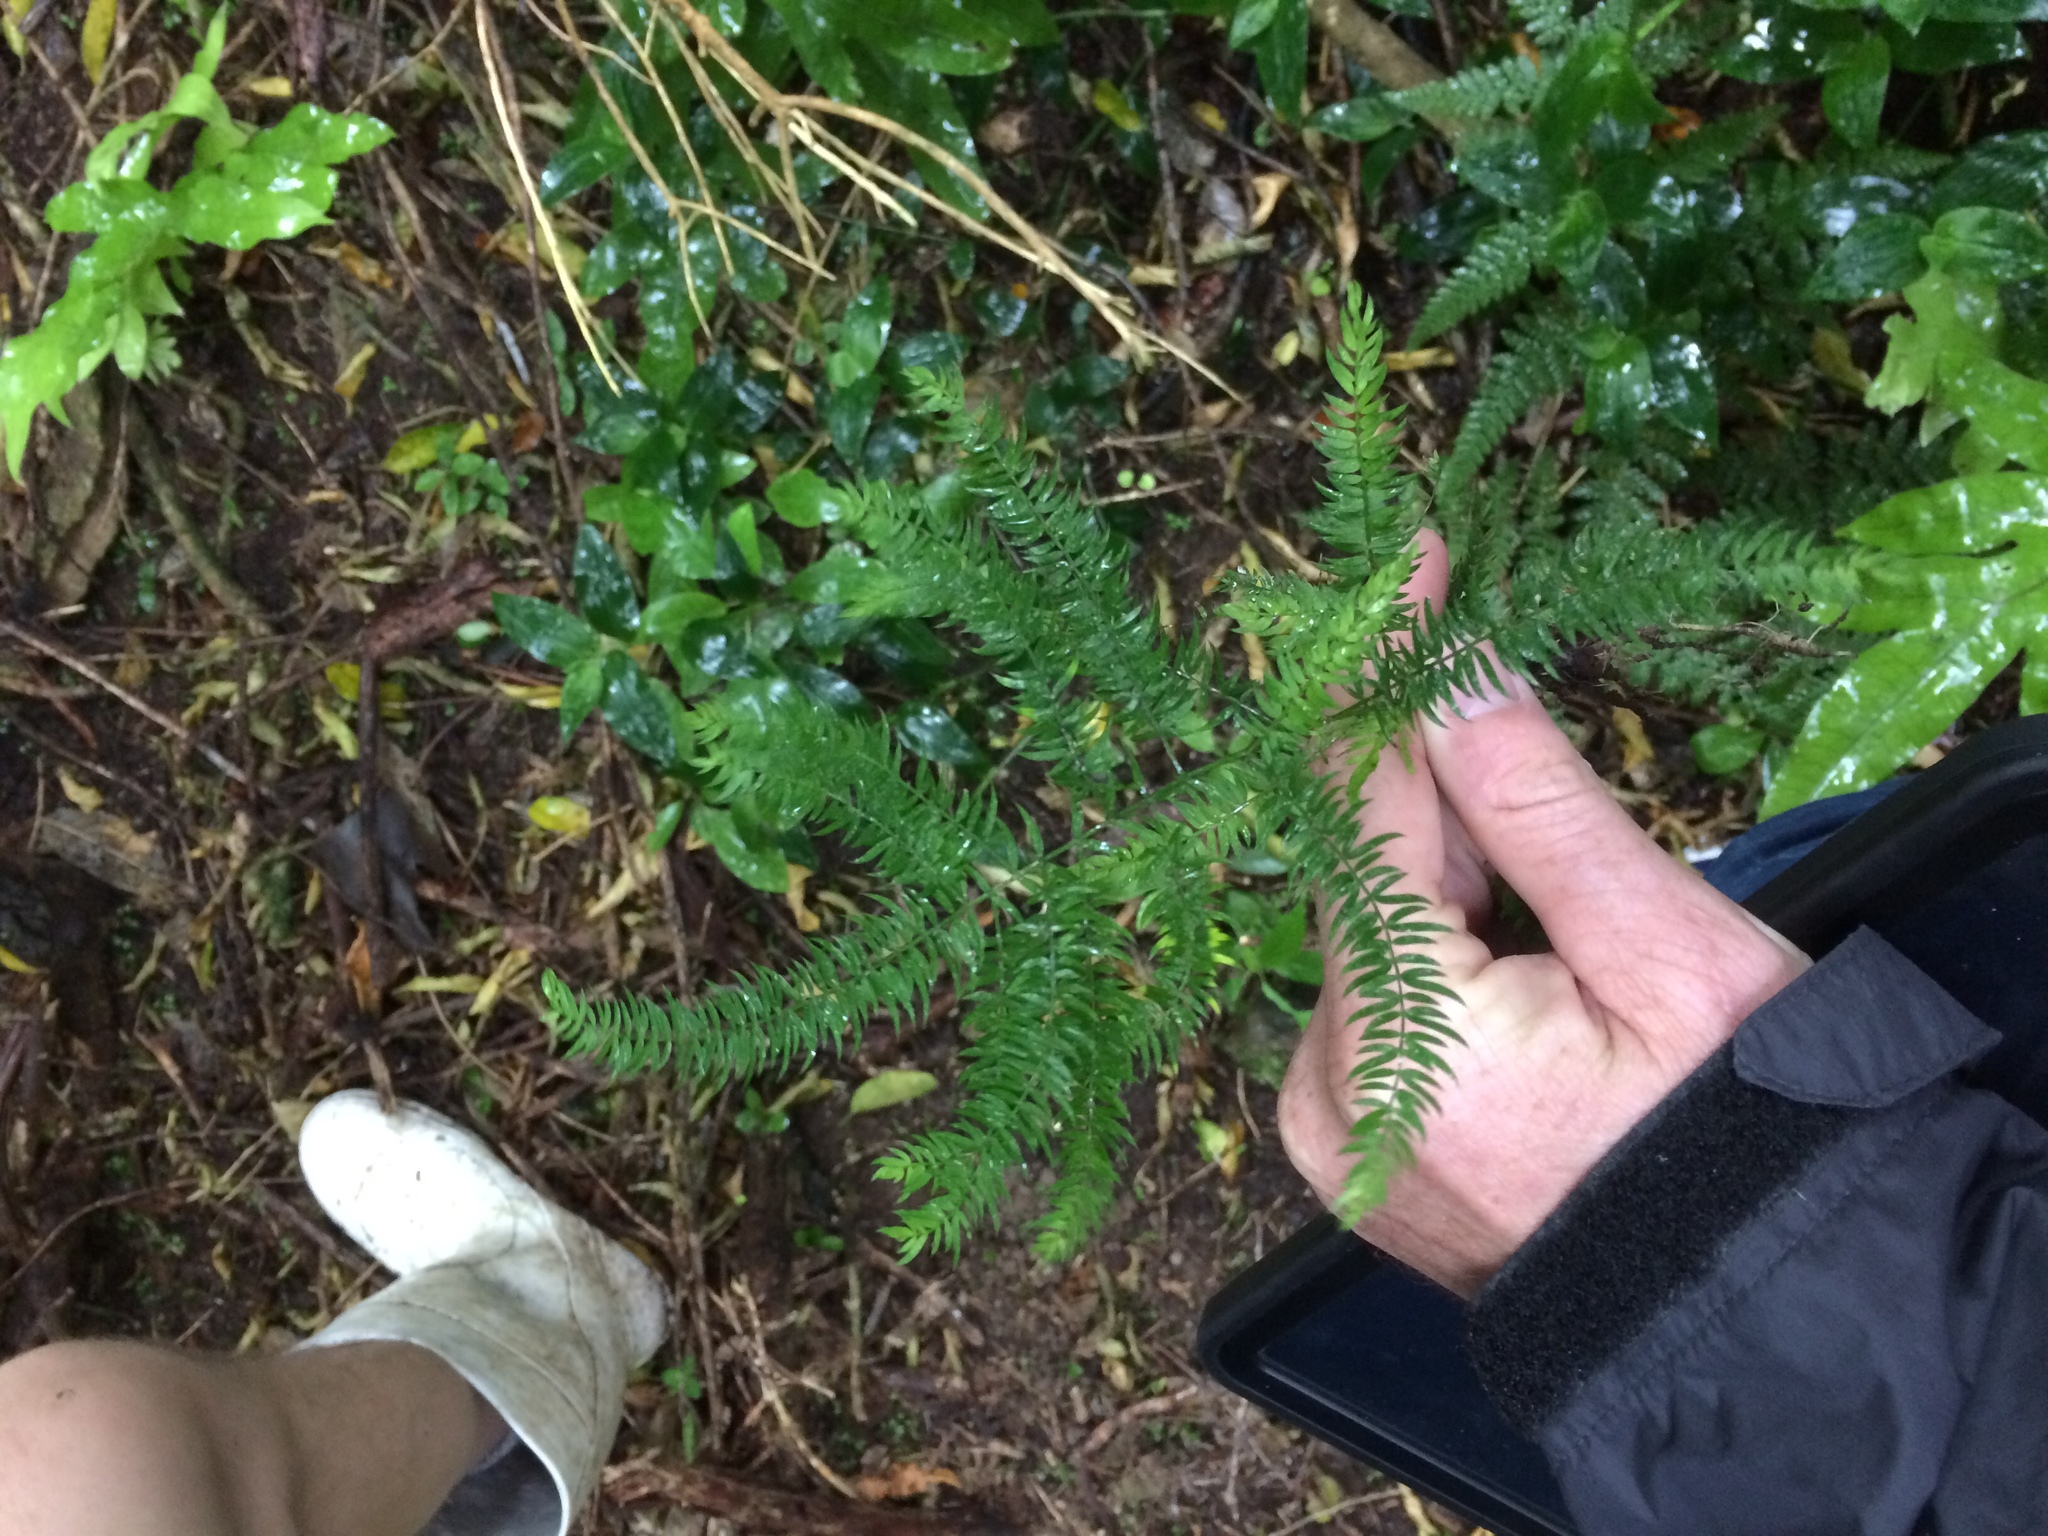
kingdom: Plantae
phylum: Tracheophyta
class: Liliopsida
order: Asparagales
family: Asparagaceae
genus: Asparagus
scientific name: Asparagus scandens
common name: Asparagus-fern
